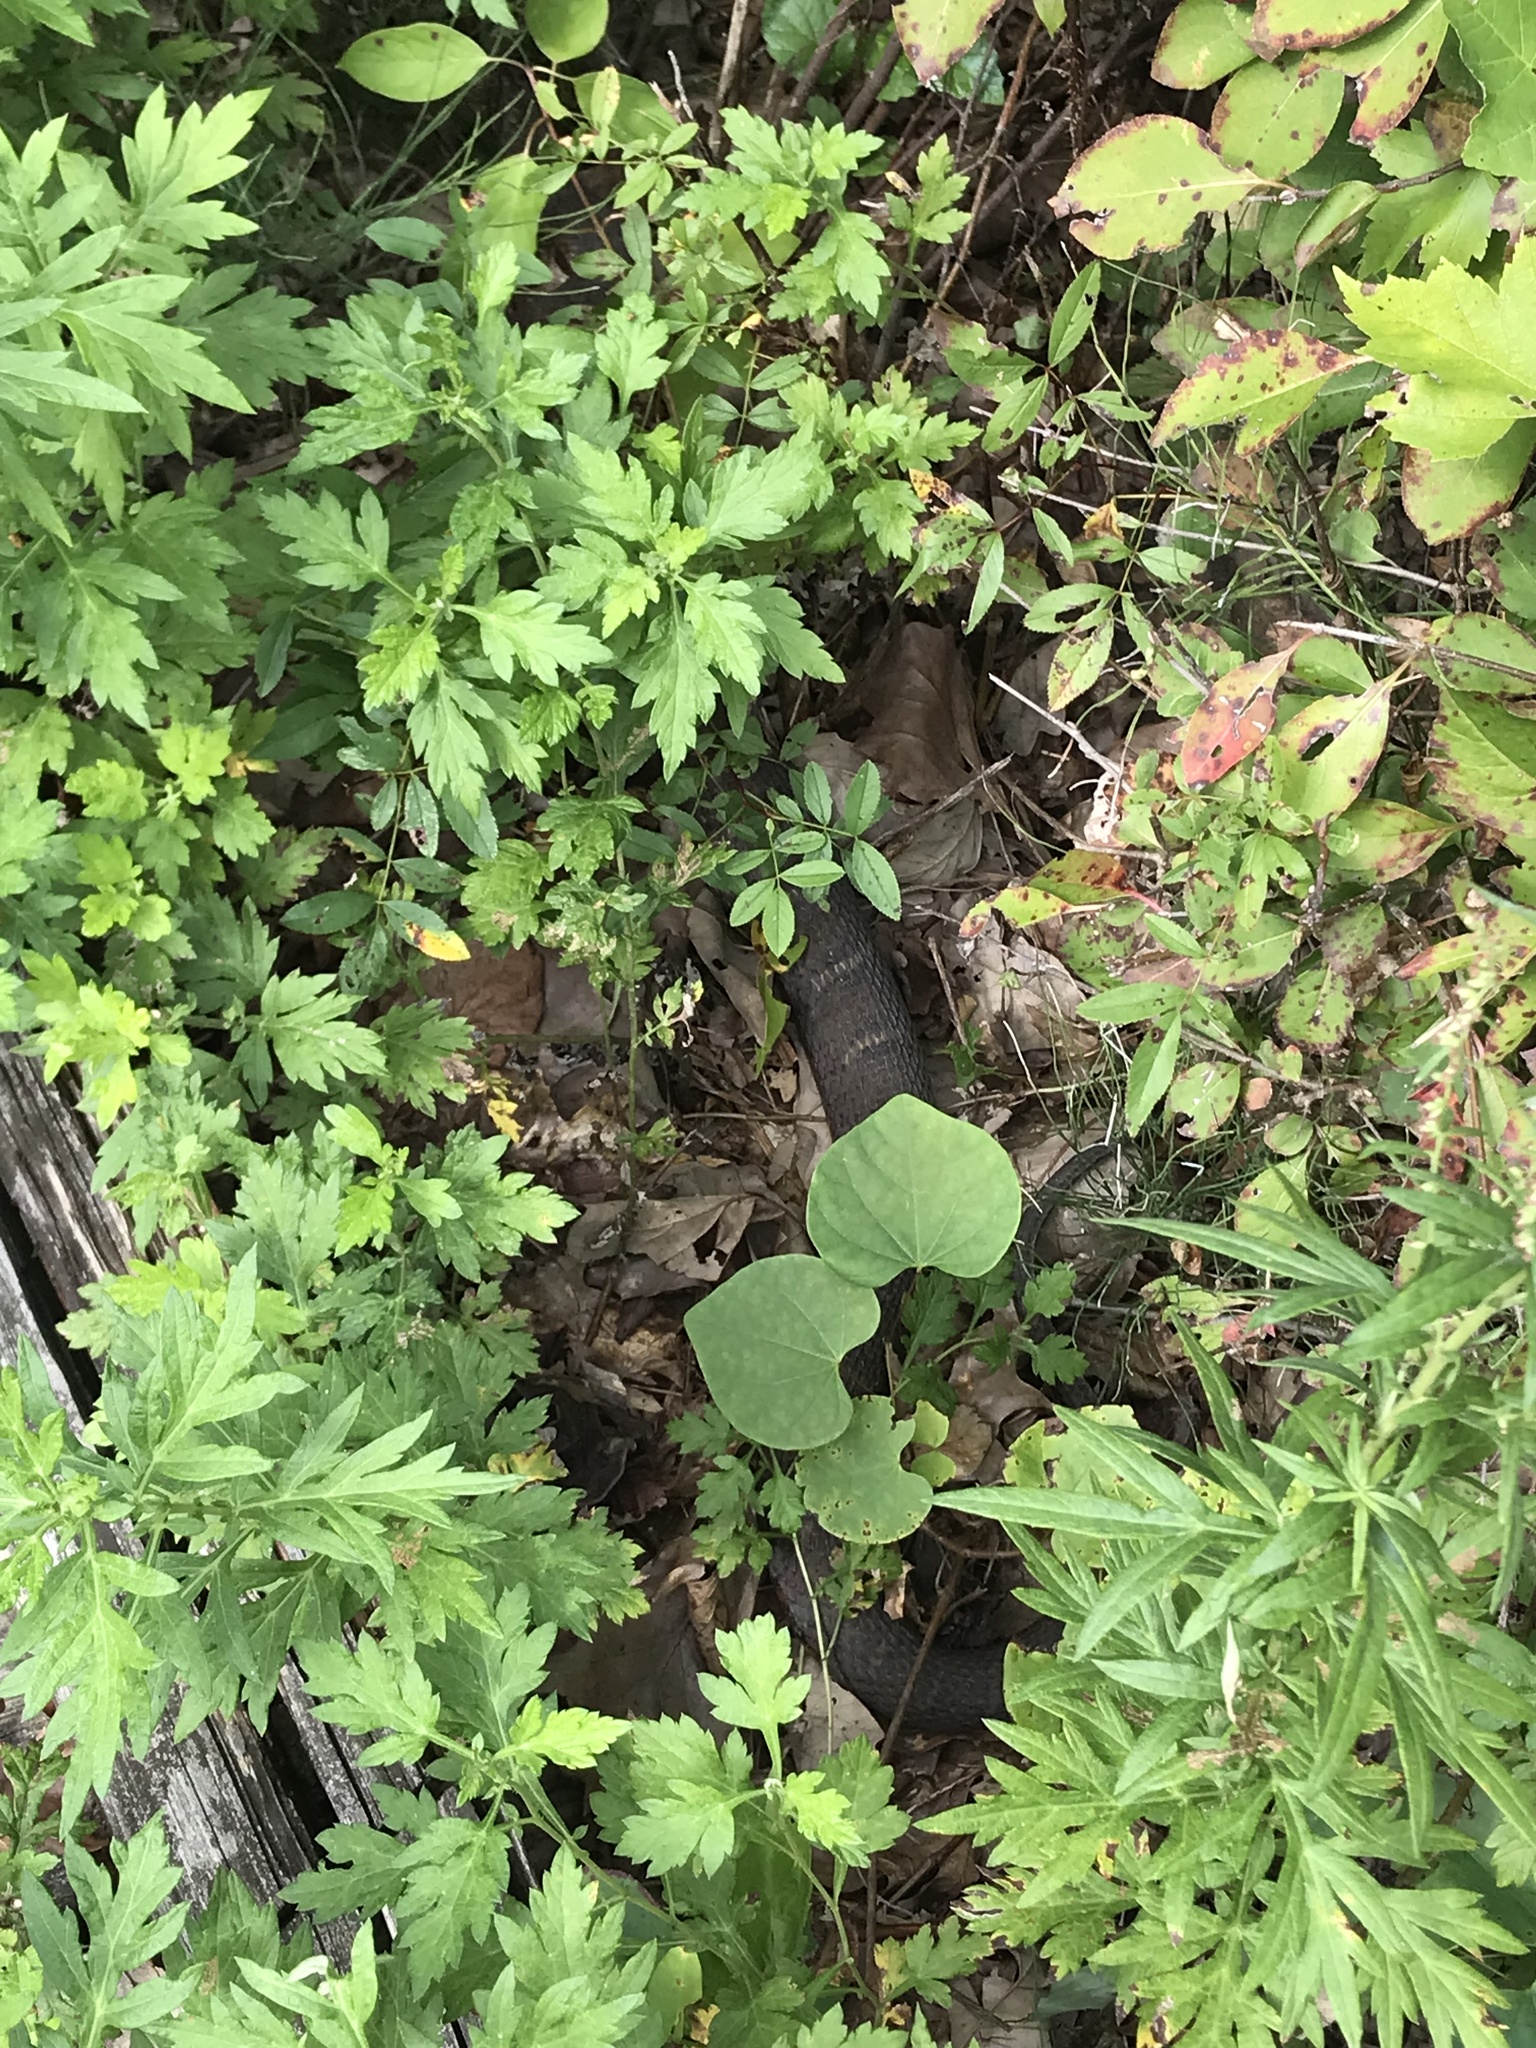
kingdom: Animalia
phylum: Chordata
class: Squamata
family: Colubridae
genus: Nerodia
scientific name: Nerodia sipedon
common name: Northern water snake
